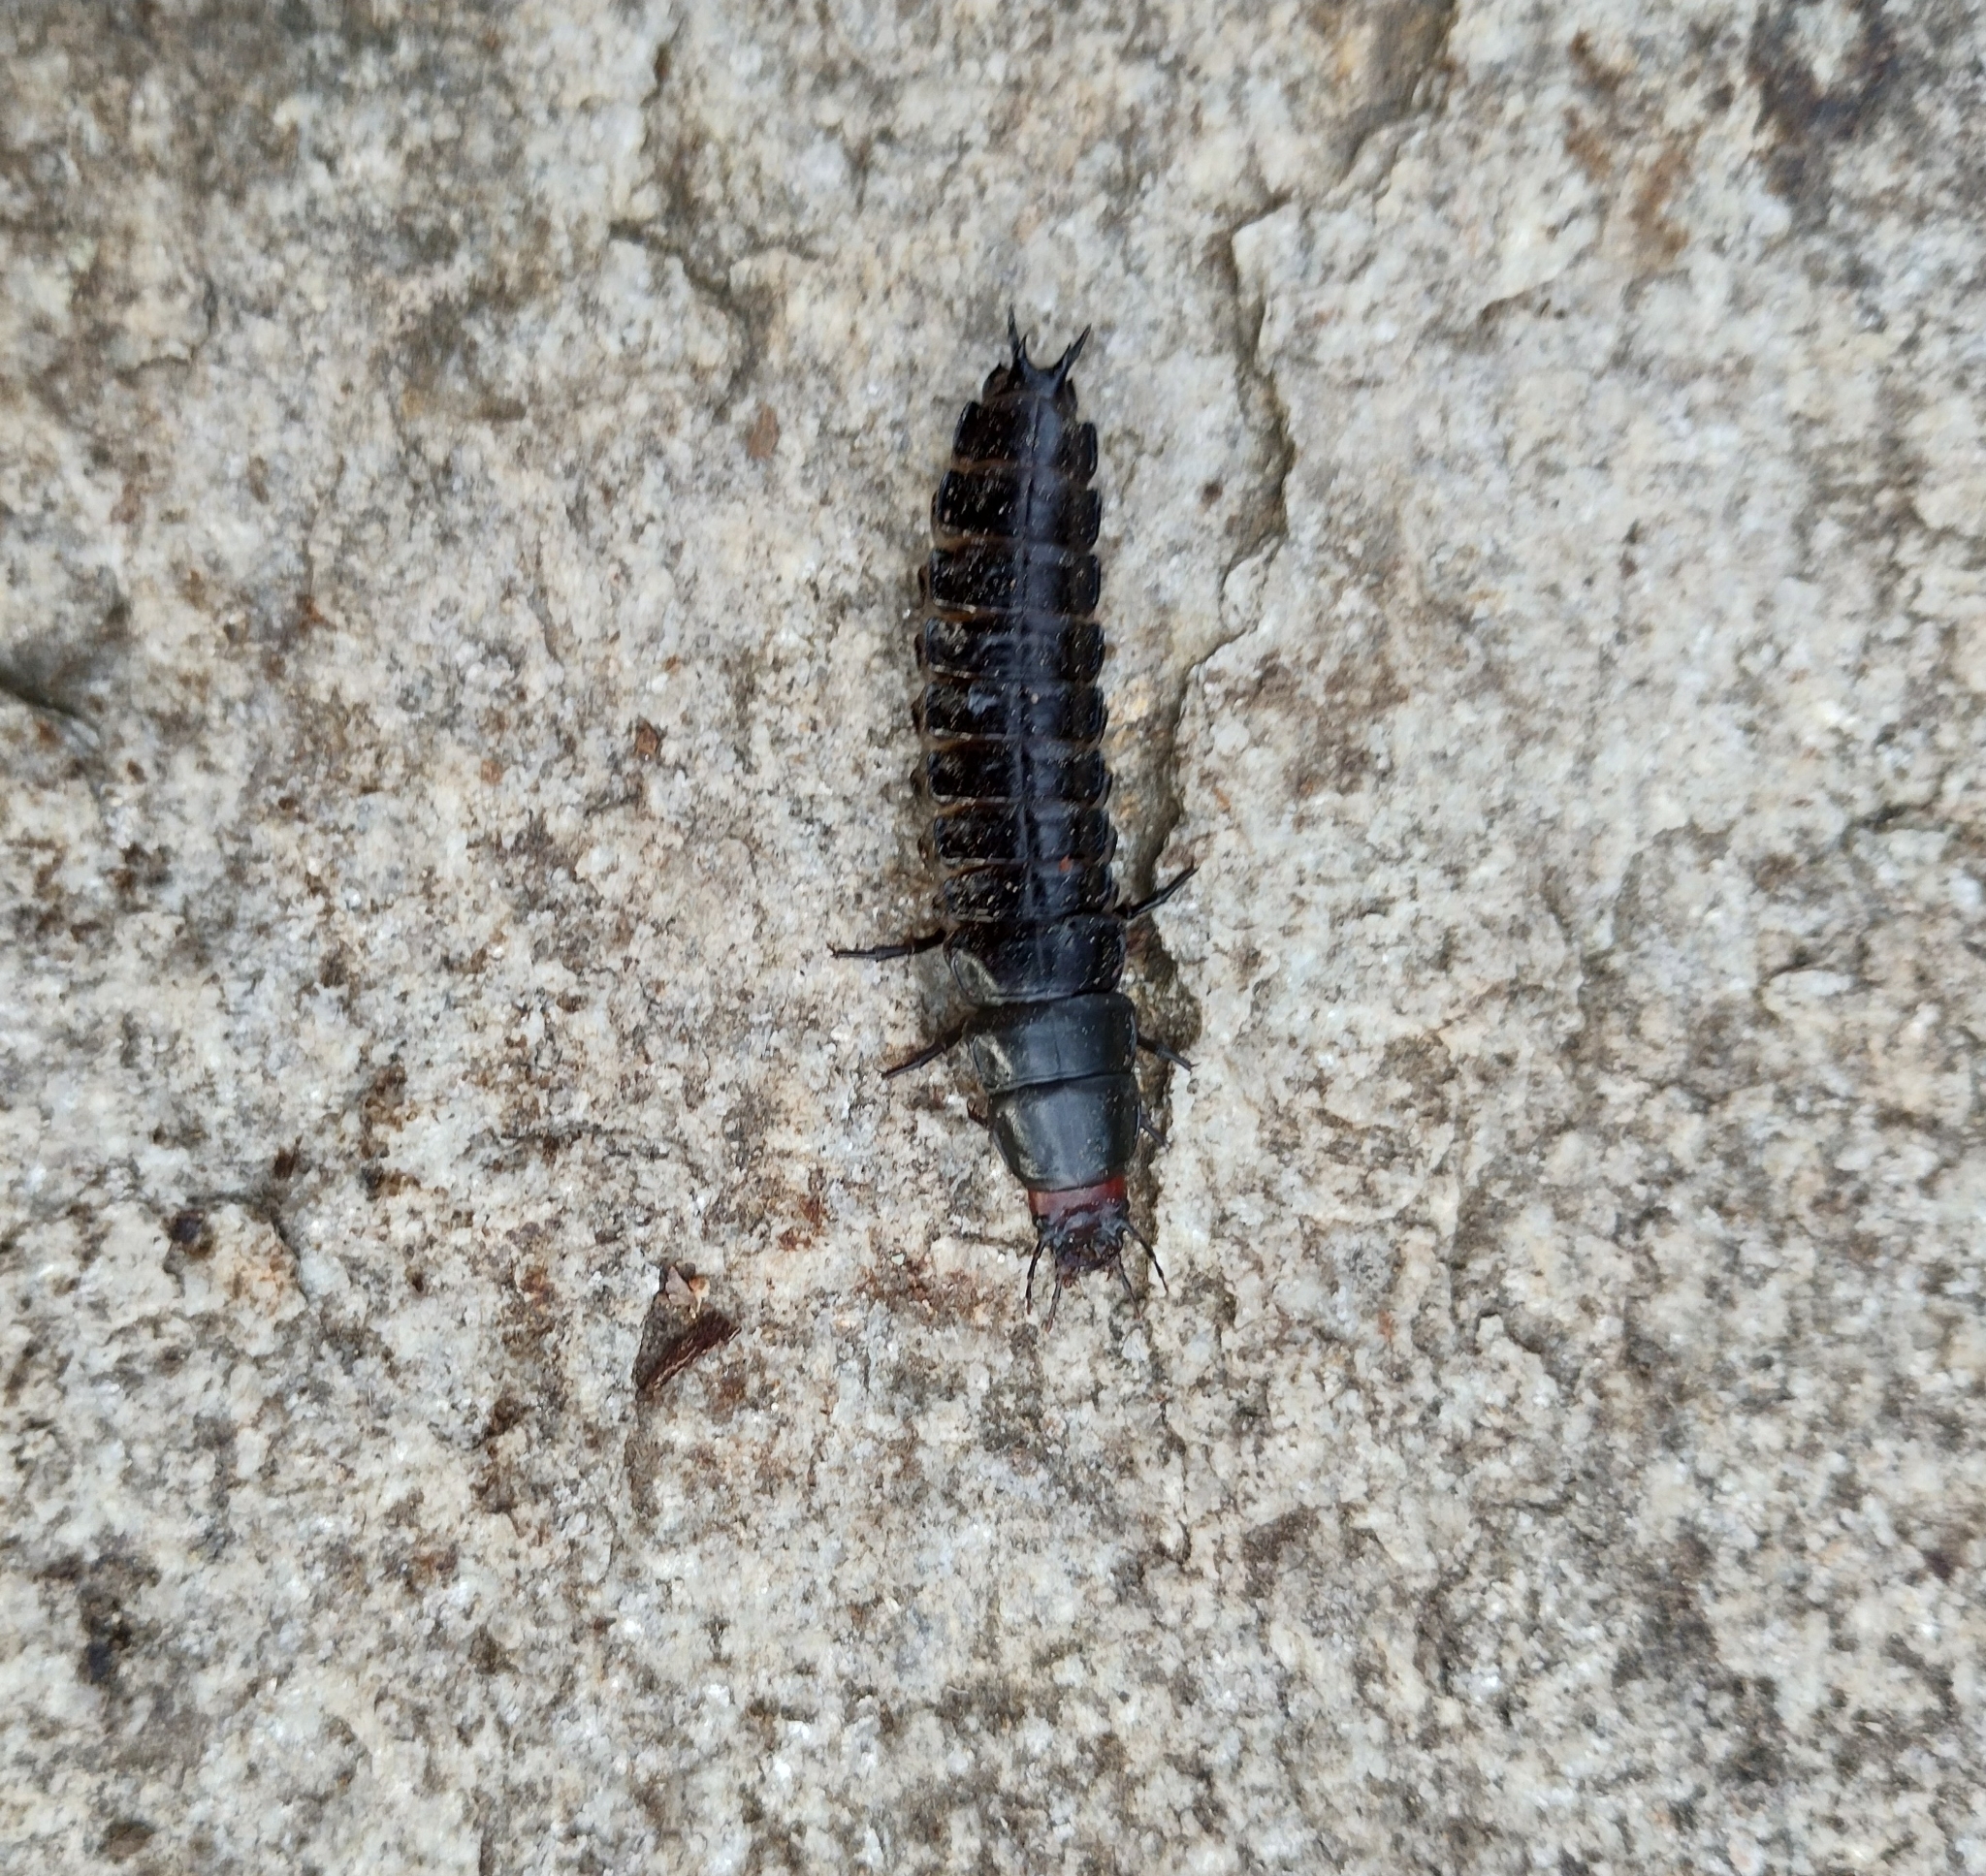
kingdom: Animalia
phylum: Arthropoda
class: Insecta
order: Coleoptera
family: Carabidae
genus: Carabus
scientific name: Carabus
